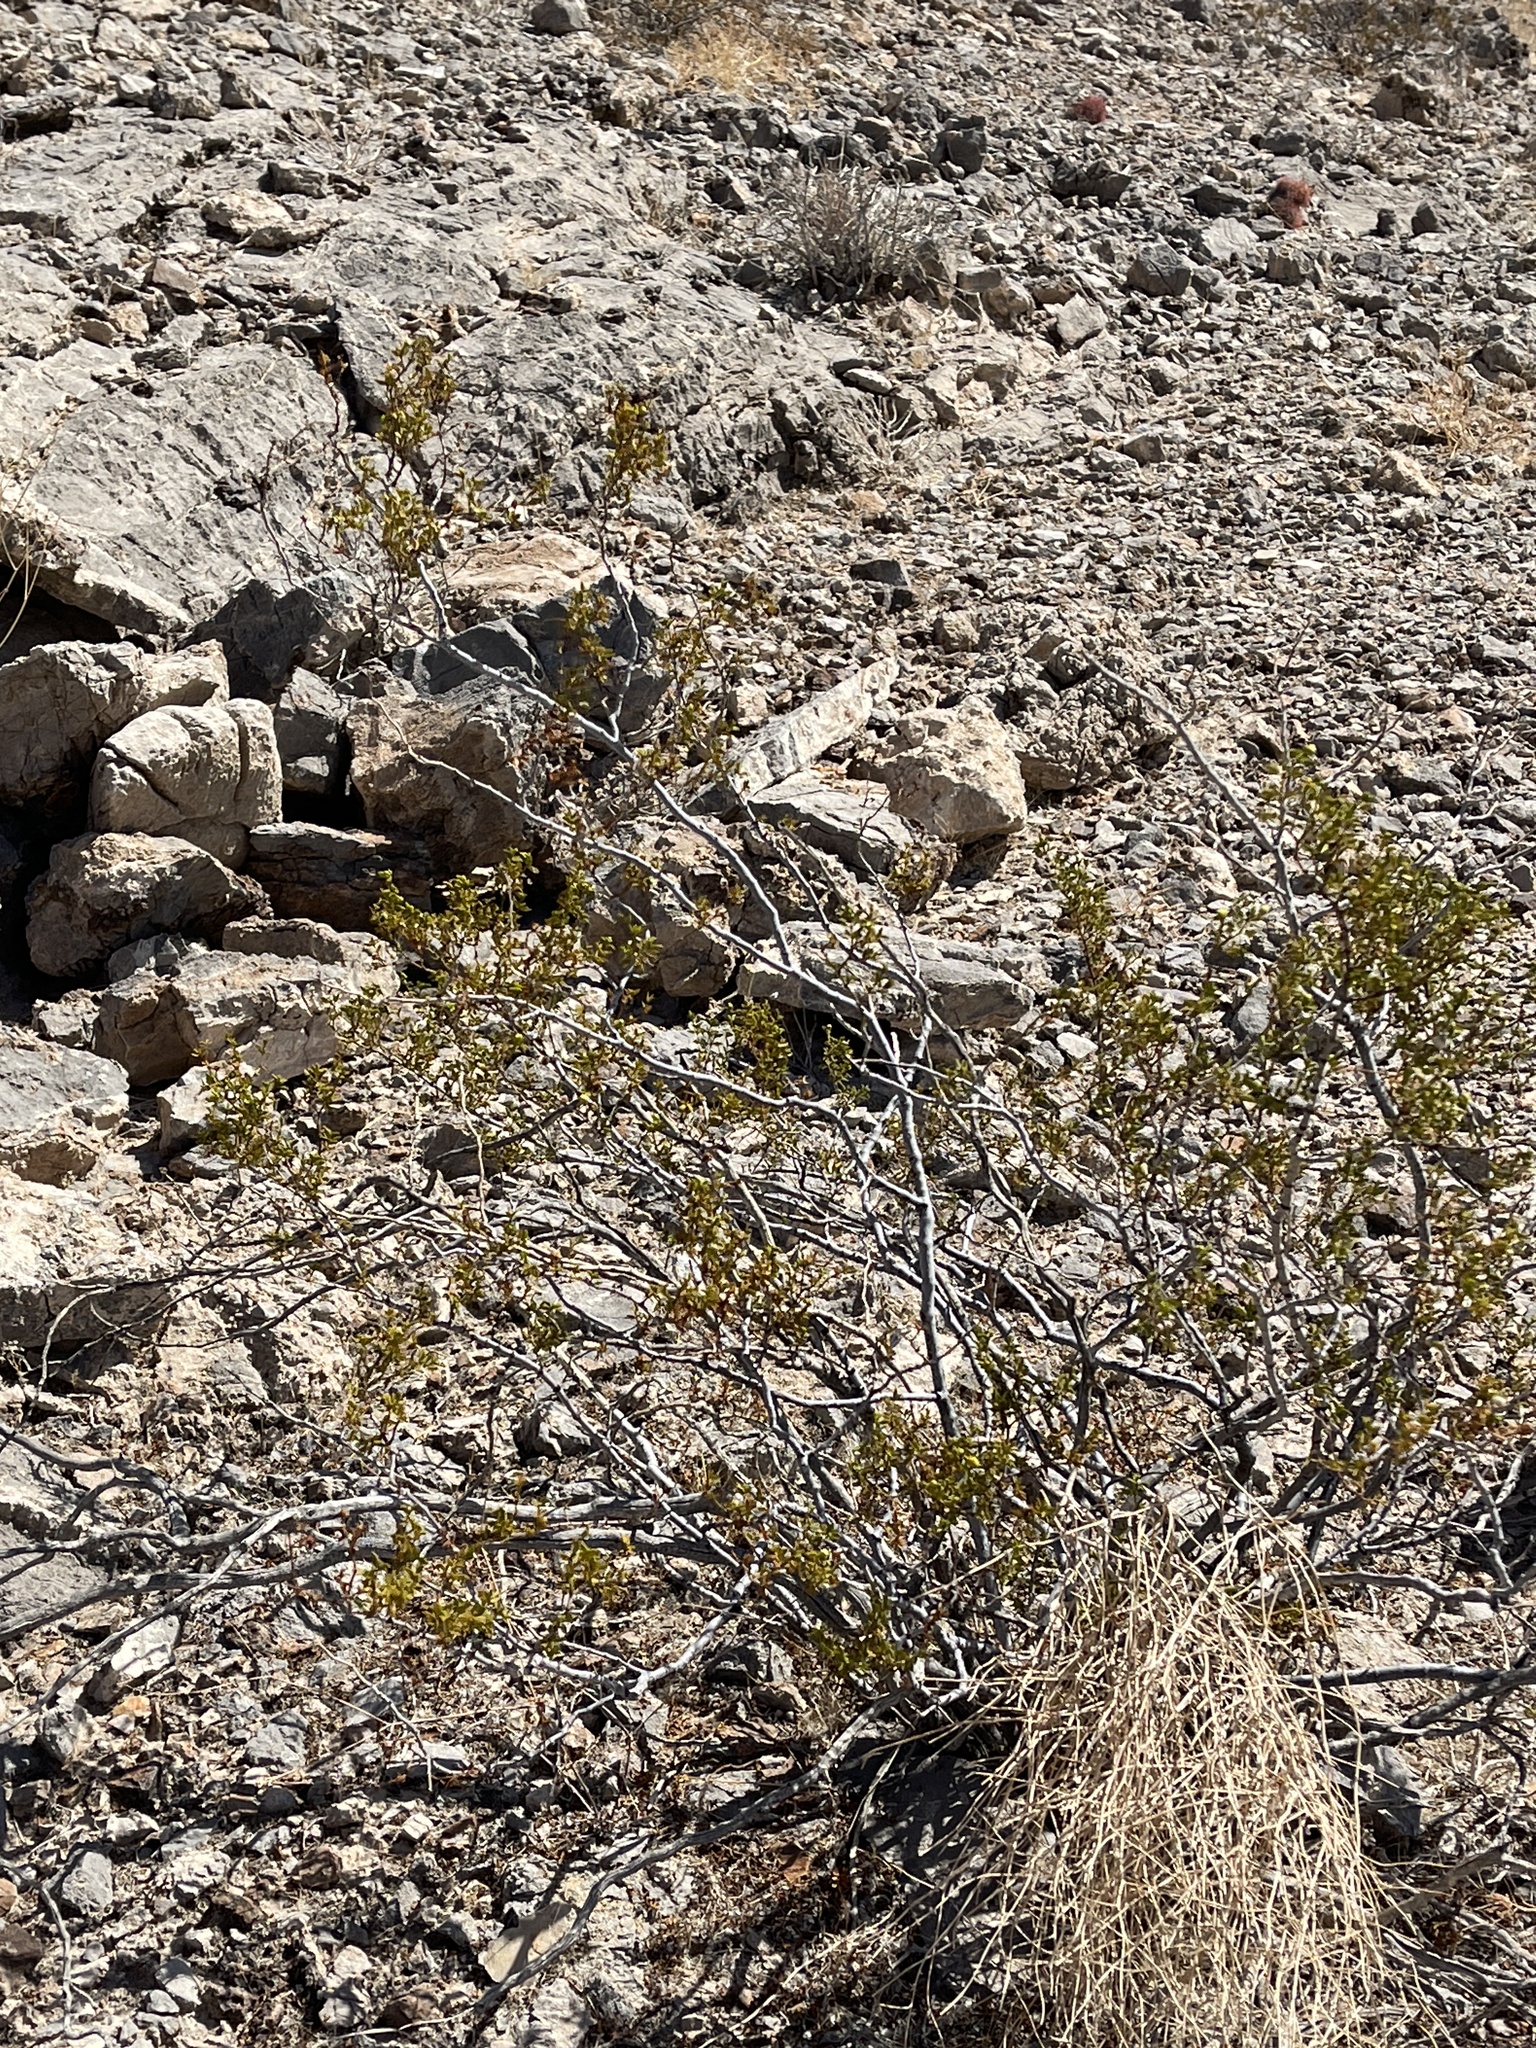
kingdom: Plantae
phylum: Tracheophyta
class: Magnoliopsida
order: Zygophyllales
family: Zygophyllaceae
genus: Larrea
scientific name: Larrea tridentata
